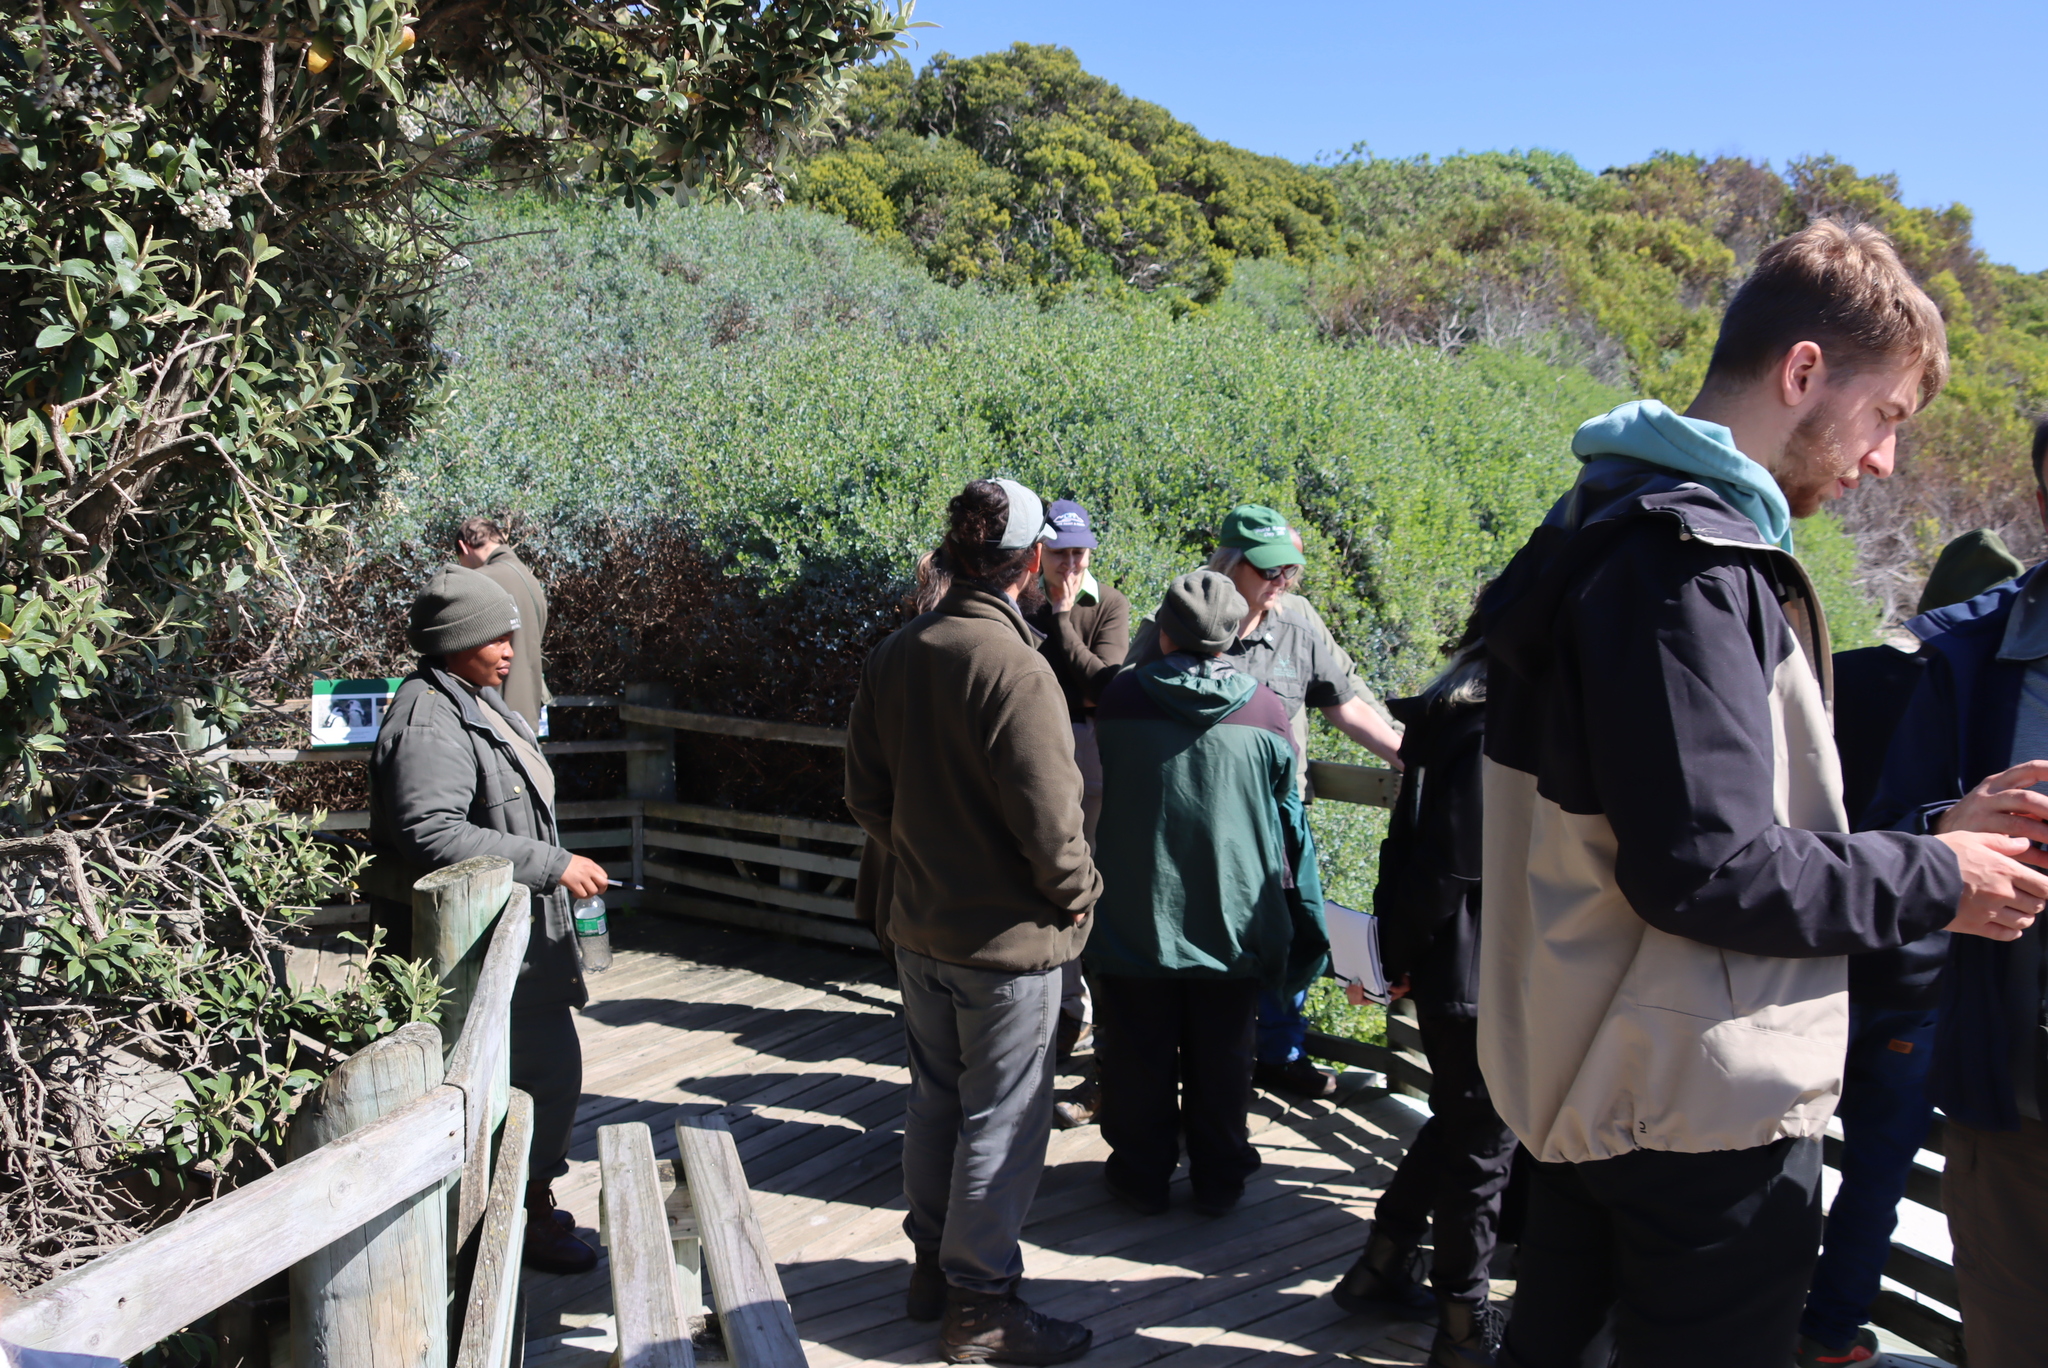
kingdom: Plantae
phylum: Tracheophyta
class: Magnoliopsida
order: Sapindales
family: Anacardiaceae
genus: Searsia
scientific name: Searsia glauca
